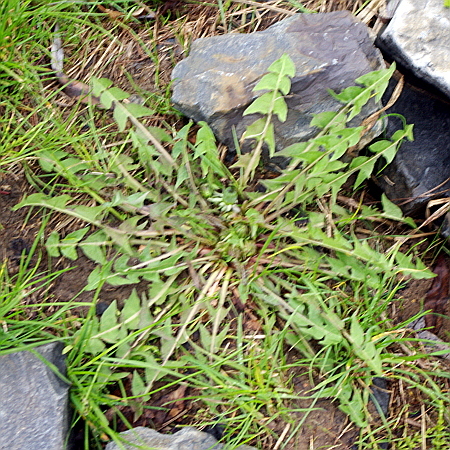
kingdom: Plantae
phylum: Tracheophyta
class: Magnoliopsida
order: Asterales
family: Asteraceae
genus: Taraxacum
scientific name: Taraxacum officinale
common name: Common dandelion
